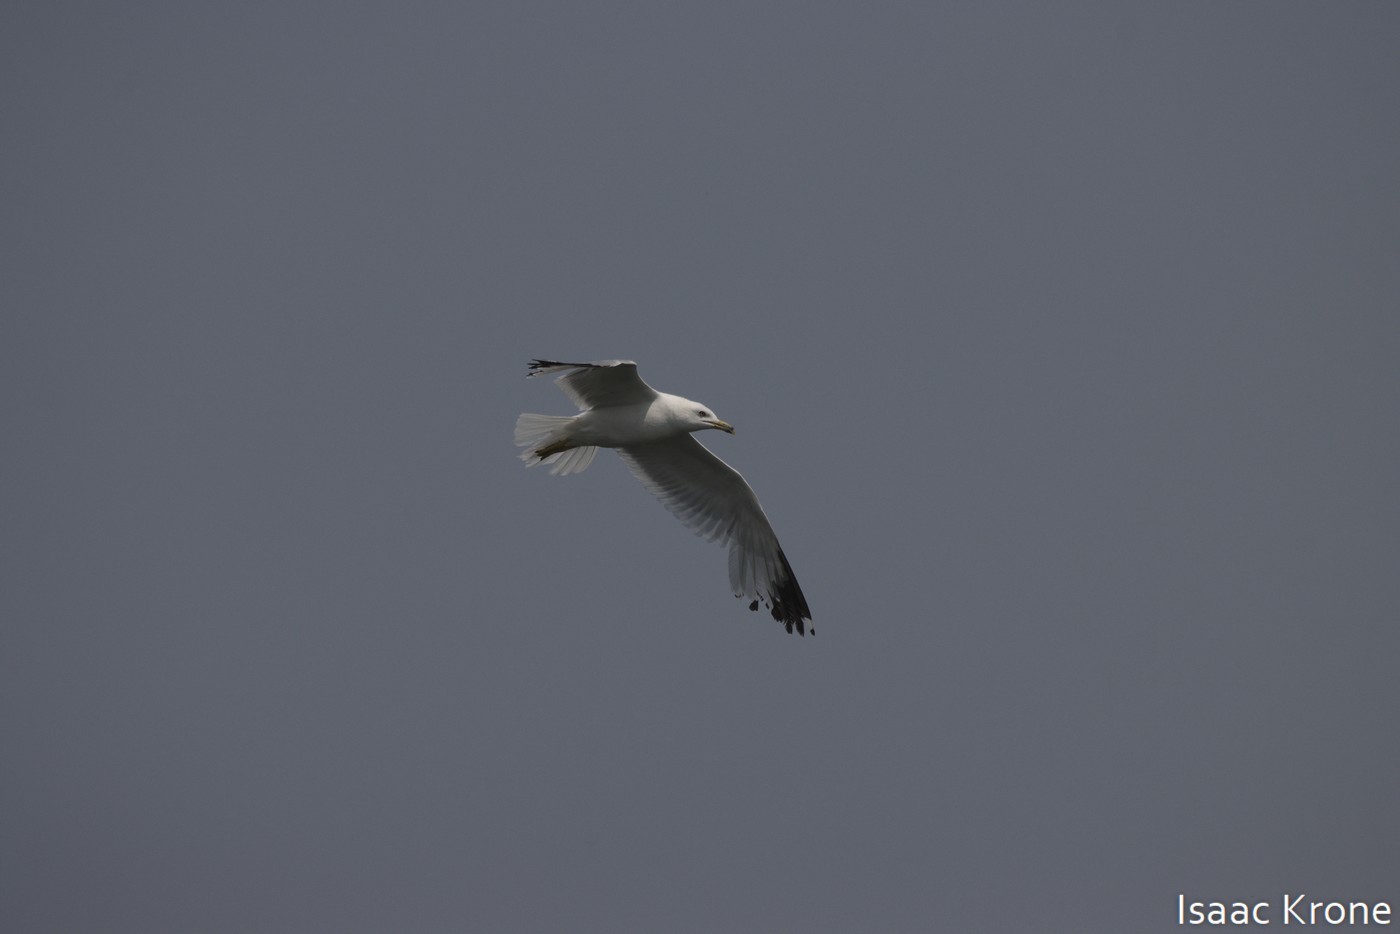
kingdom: Animalia
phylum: Chordata
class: Aves
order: Charadriiformes
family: Laridae
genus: Larus
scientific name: Larus delawarensis
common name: Ring-billed gull
